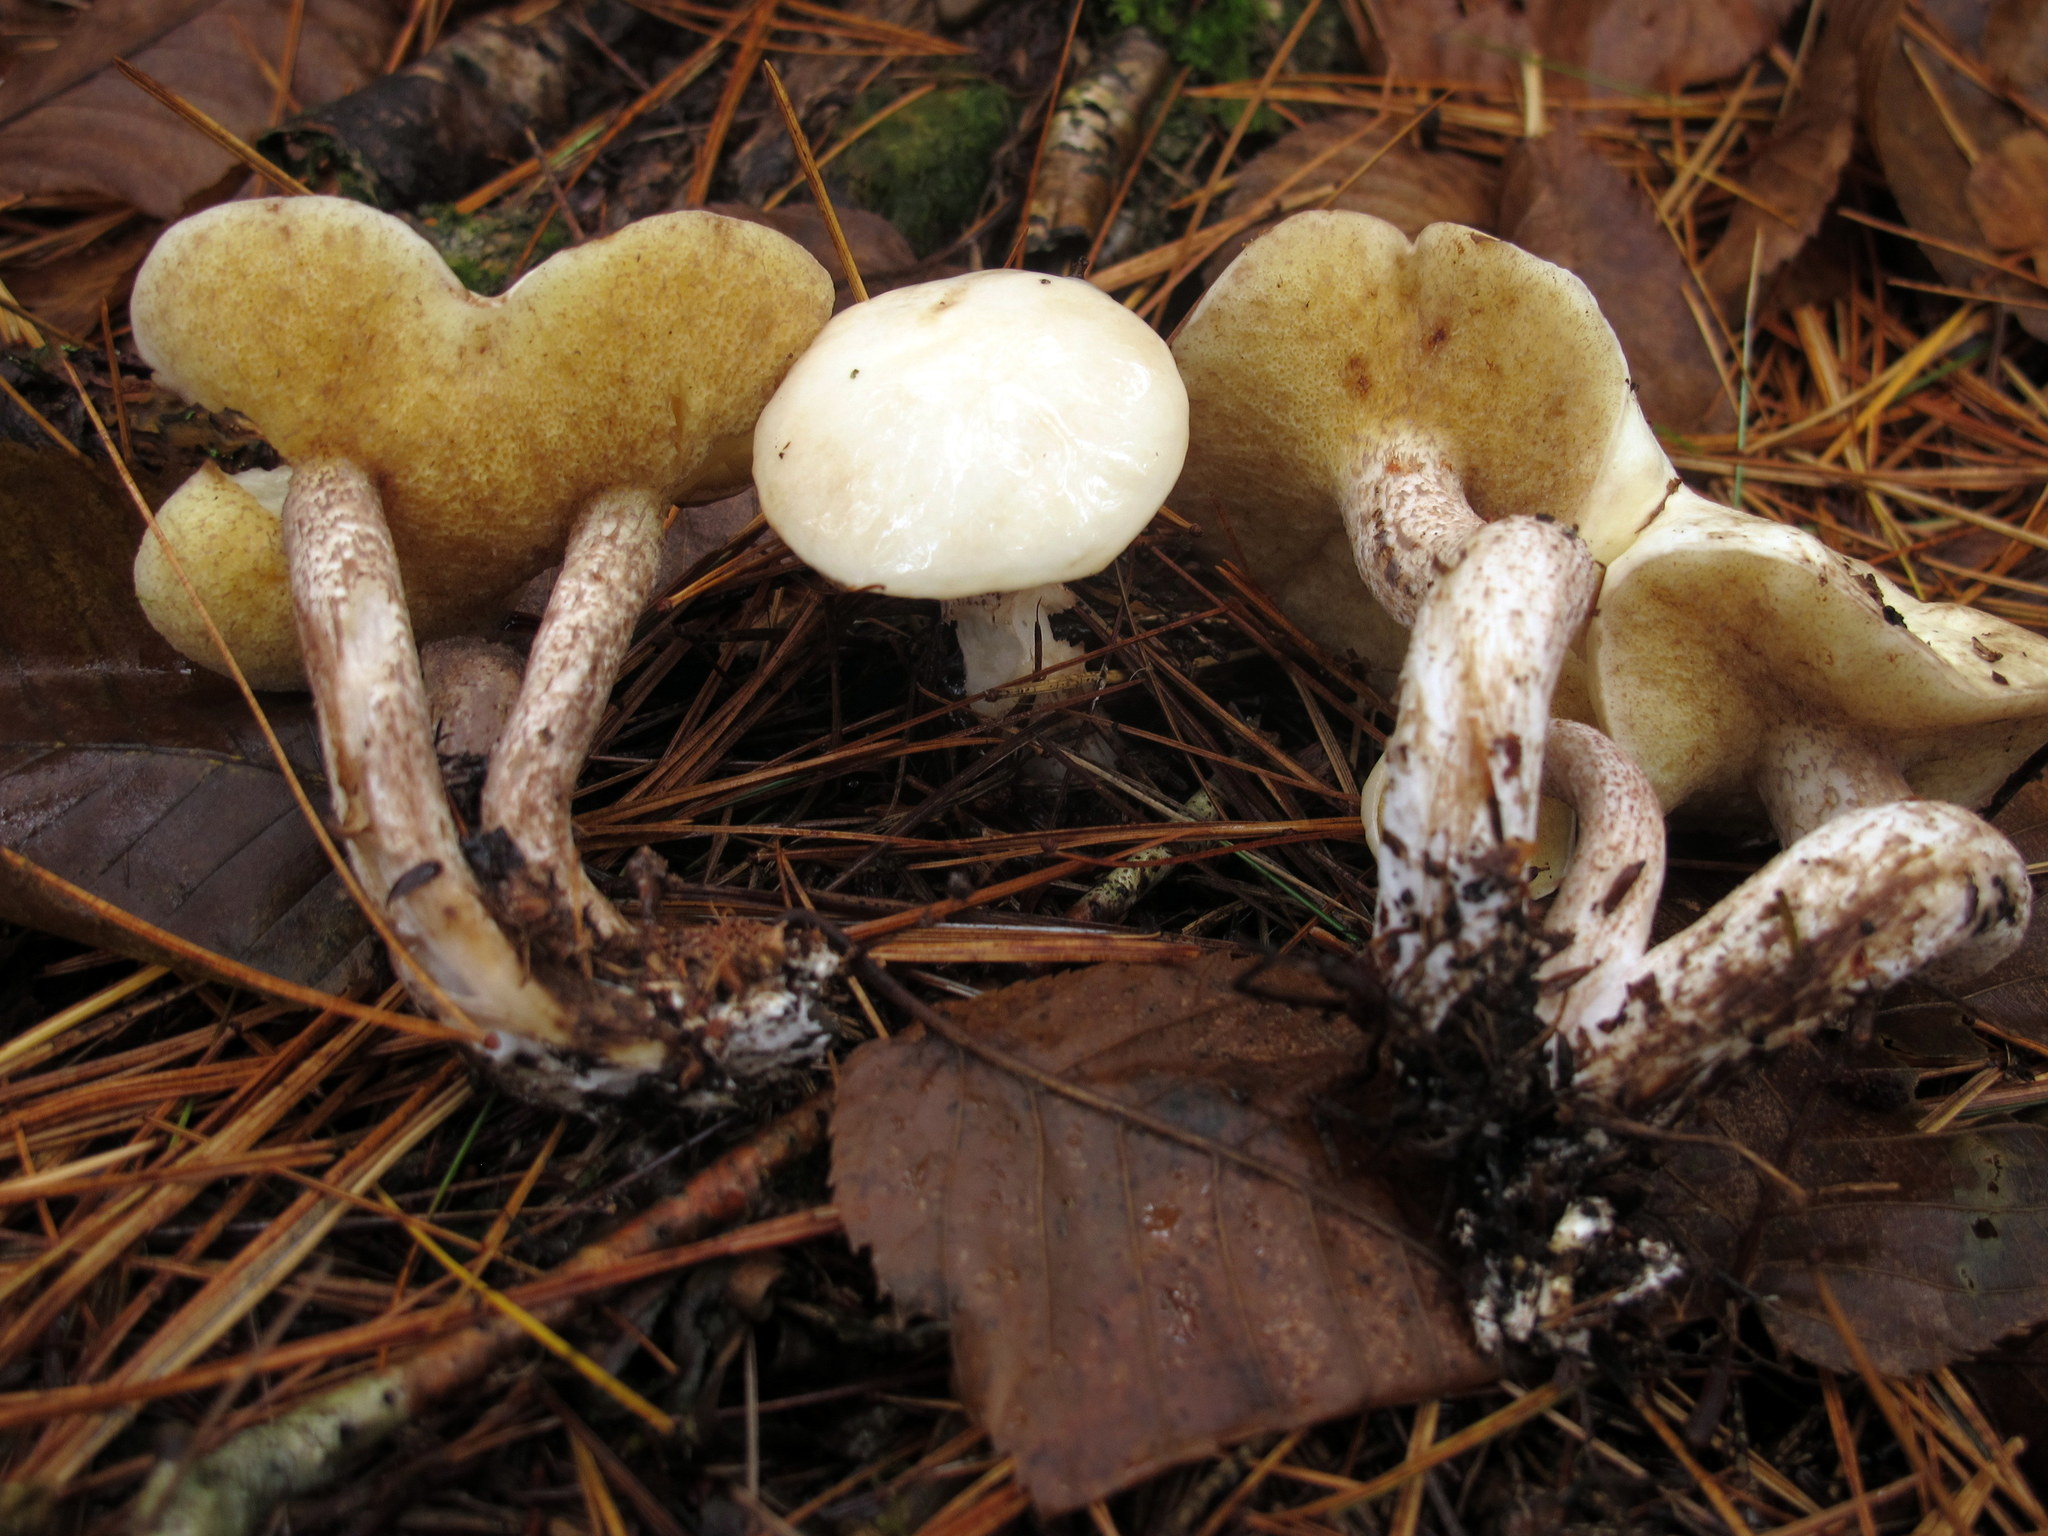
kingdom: Fungi
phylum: Basidiomycota
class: Agaricomycetes
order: Boletales
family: Suillaceae
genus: Suillus
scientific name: Suillus placidus
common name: Slippery white bolete
